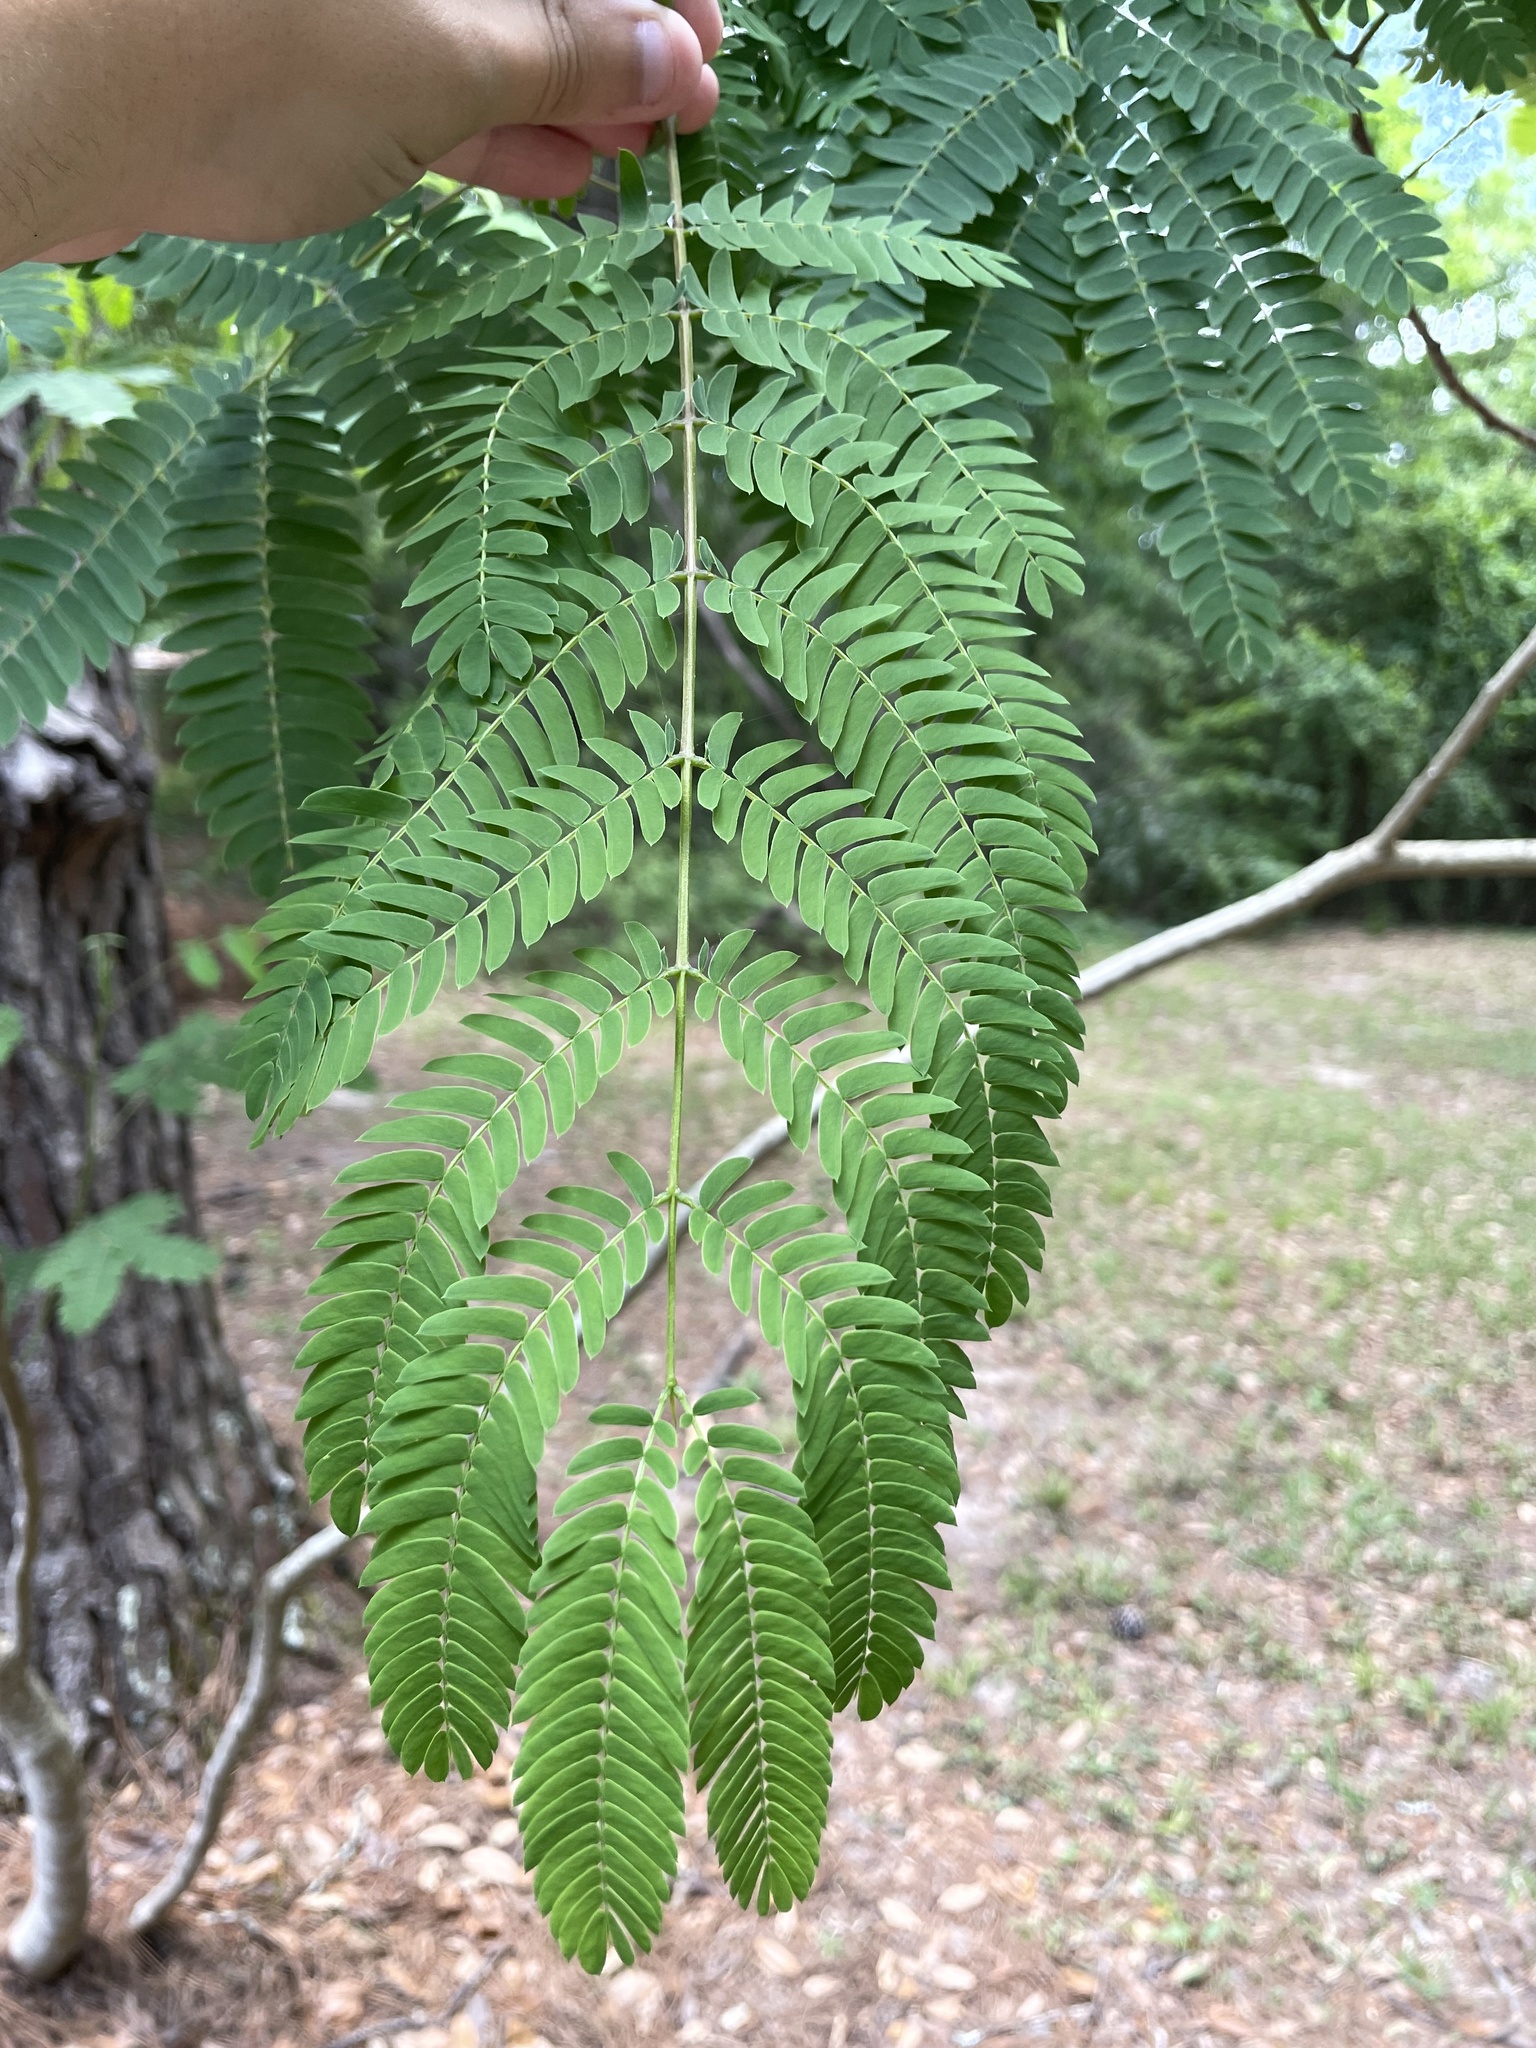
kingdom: Plantae
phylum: Tracheophyta
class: Magnoliopsida
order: Fabales
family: Fabaceae
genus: Albizia
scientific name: Albizia julibrissin
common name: Silktree
